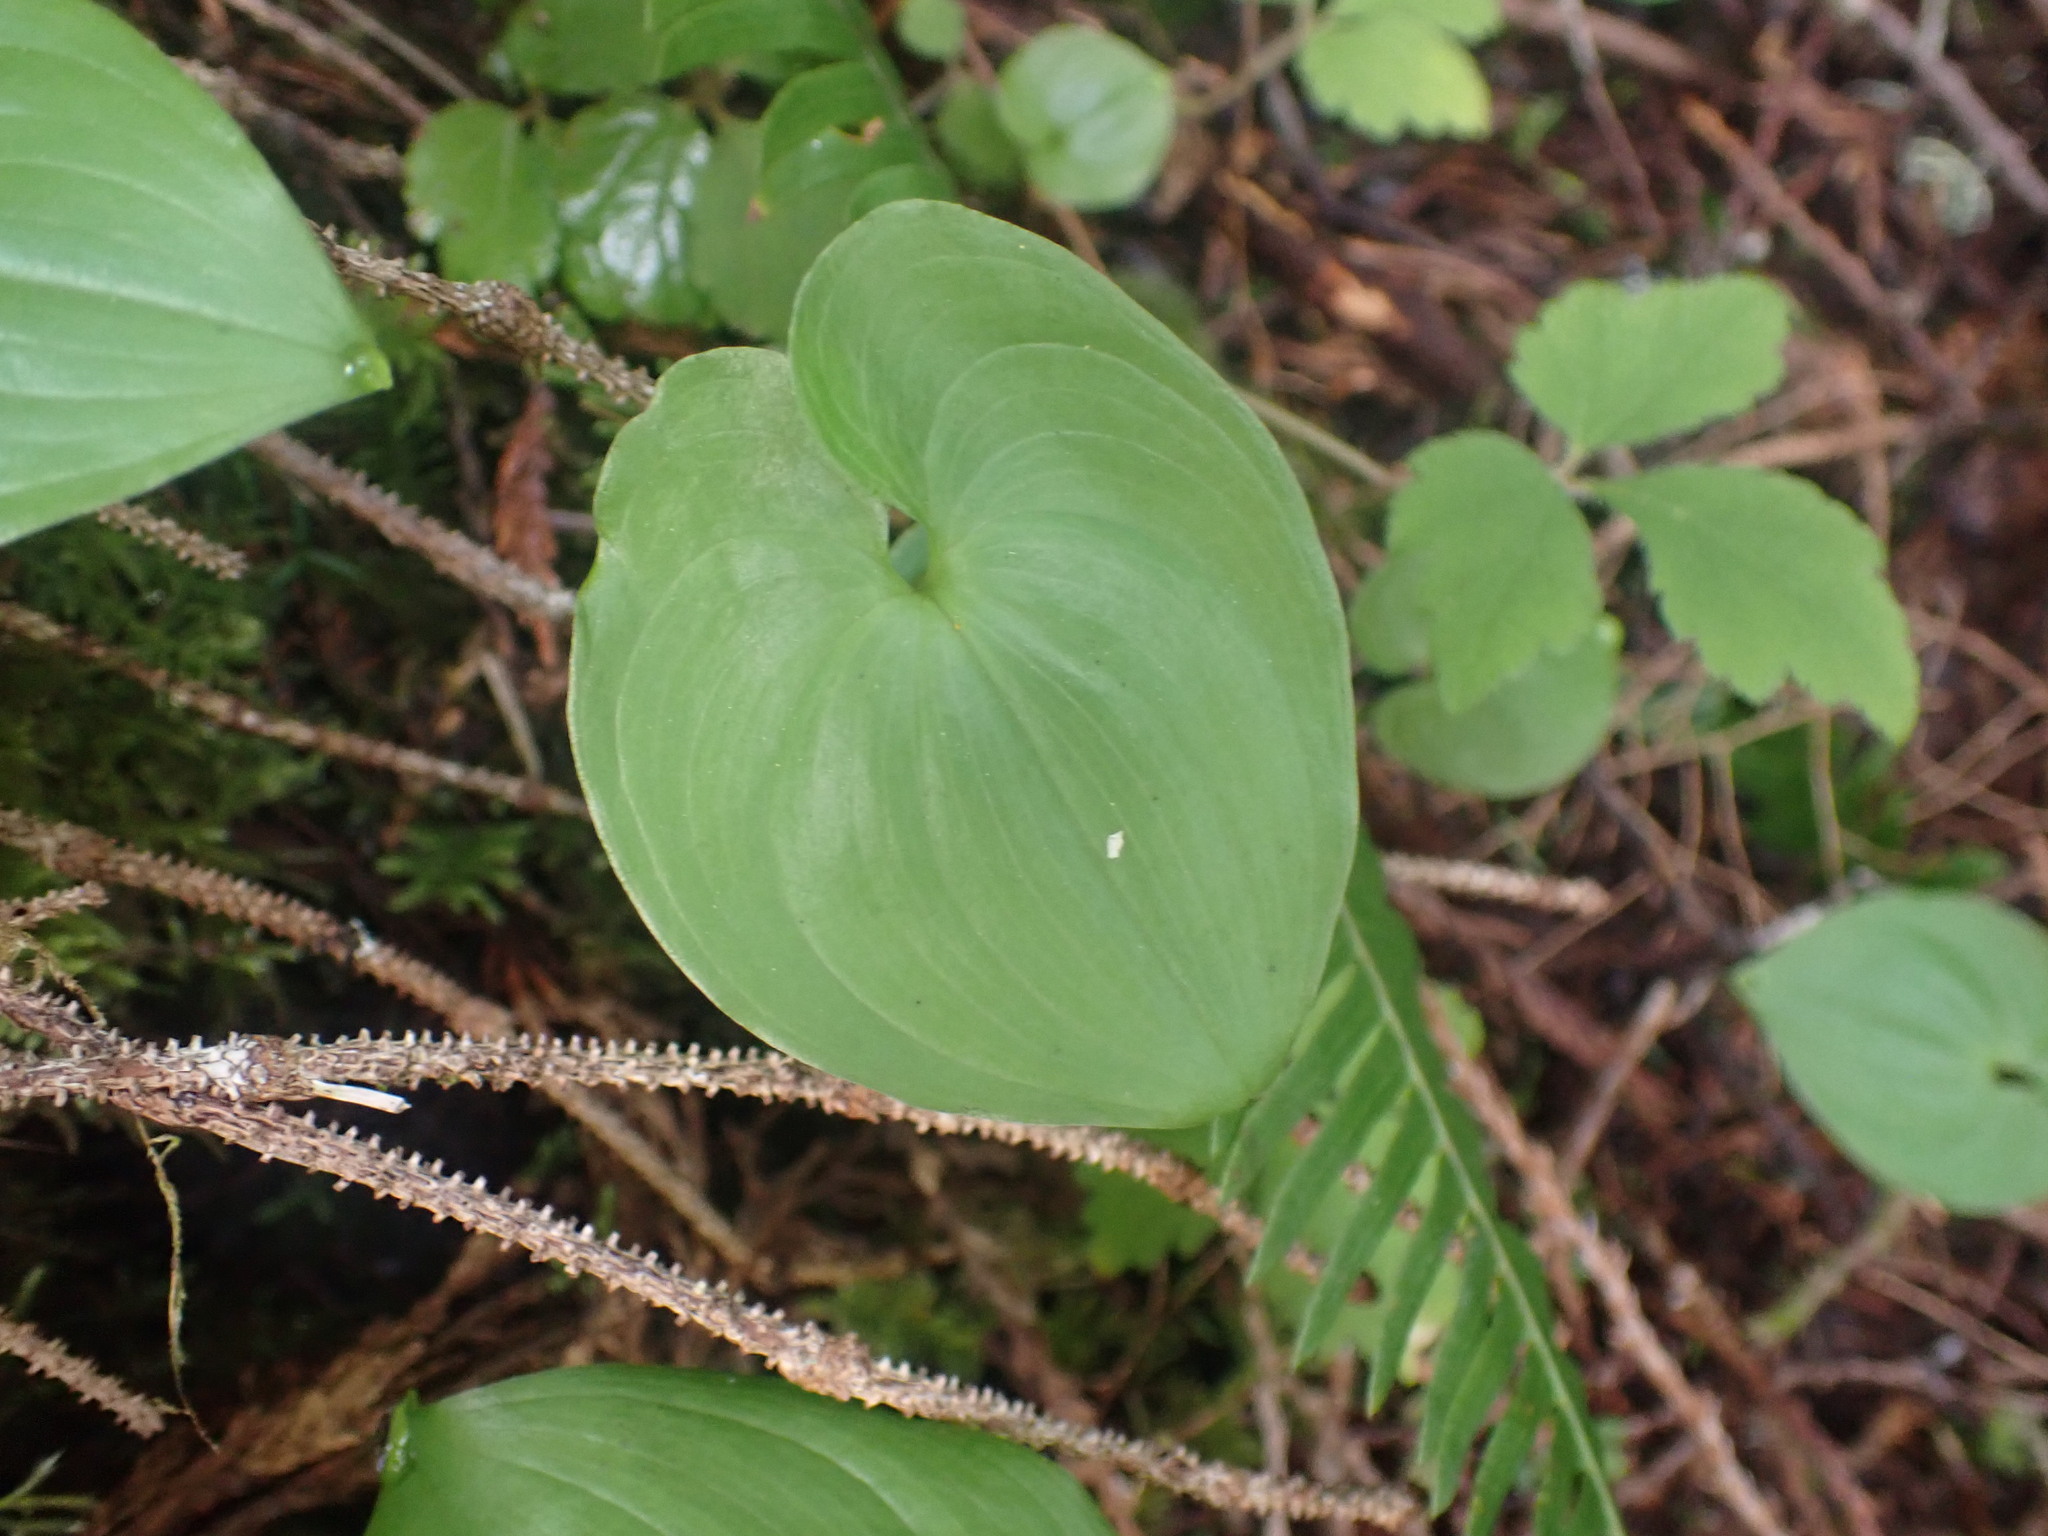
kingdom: Plantae
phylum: Tracheophyta
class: Liliopsida
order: Asparagales
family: Asparagaceae
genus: Maianthemum
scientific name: Maianthemum dilatatum
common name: False lily-of-the-valley
